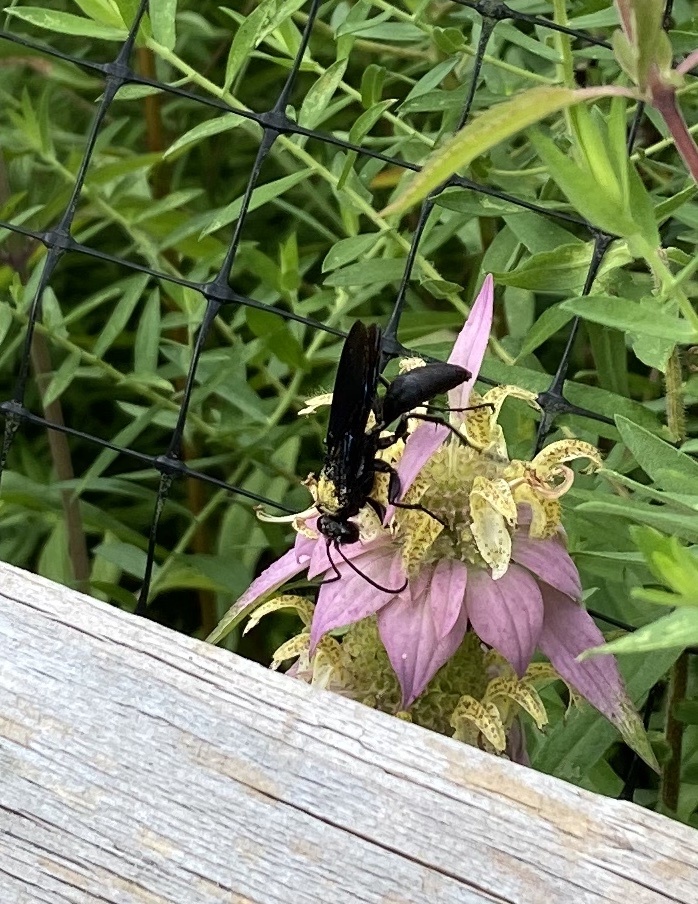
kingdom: Animalia
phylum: Arthropoda
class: Insecta
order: Hymenoptera
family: Sphecidae
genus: Sphex
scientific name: Sphex pensylvanicus
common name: Great black digger wasp
